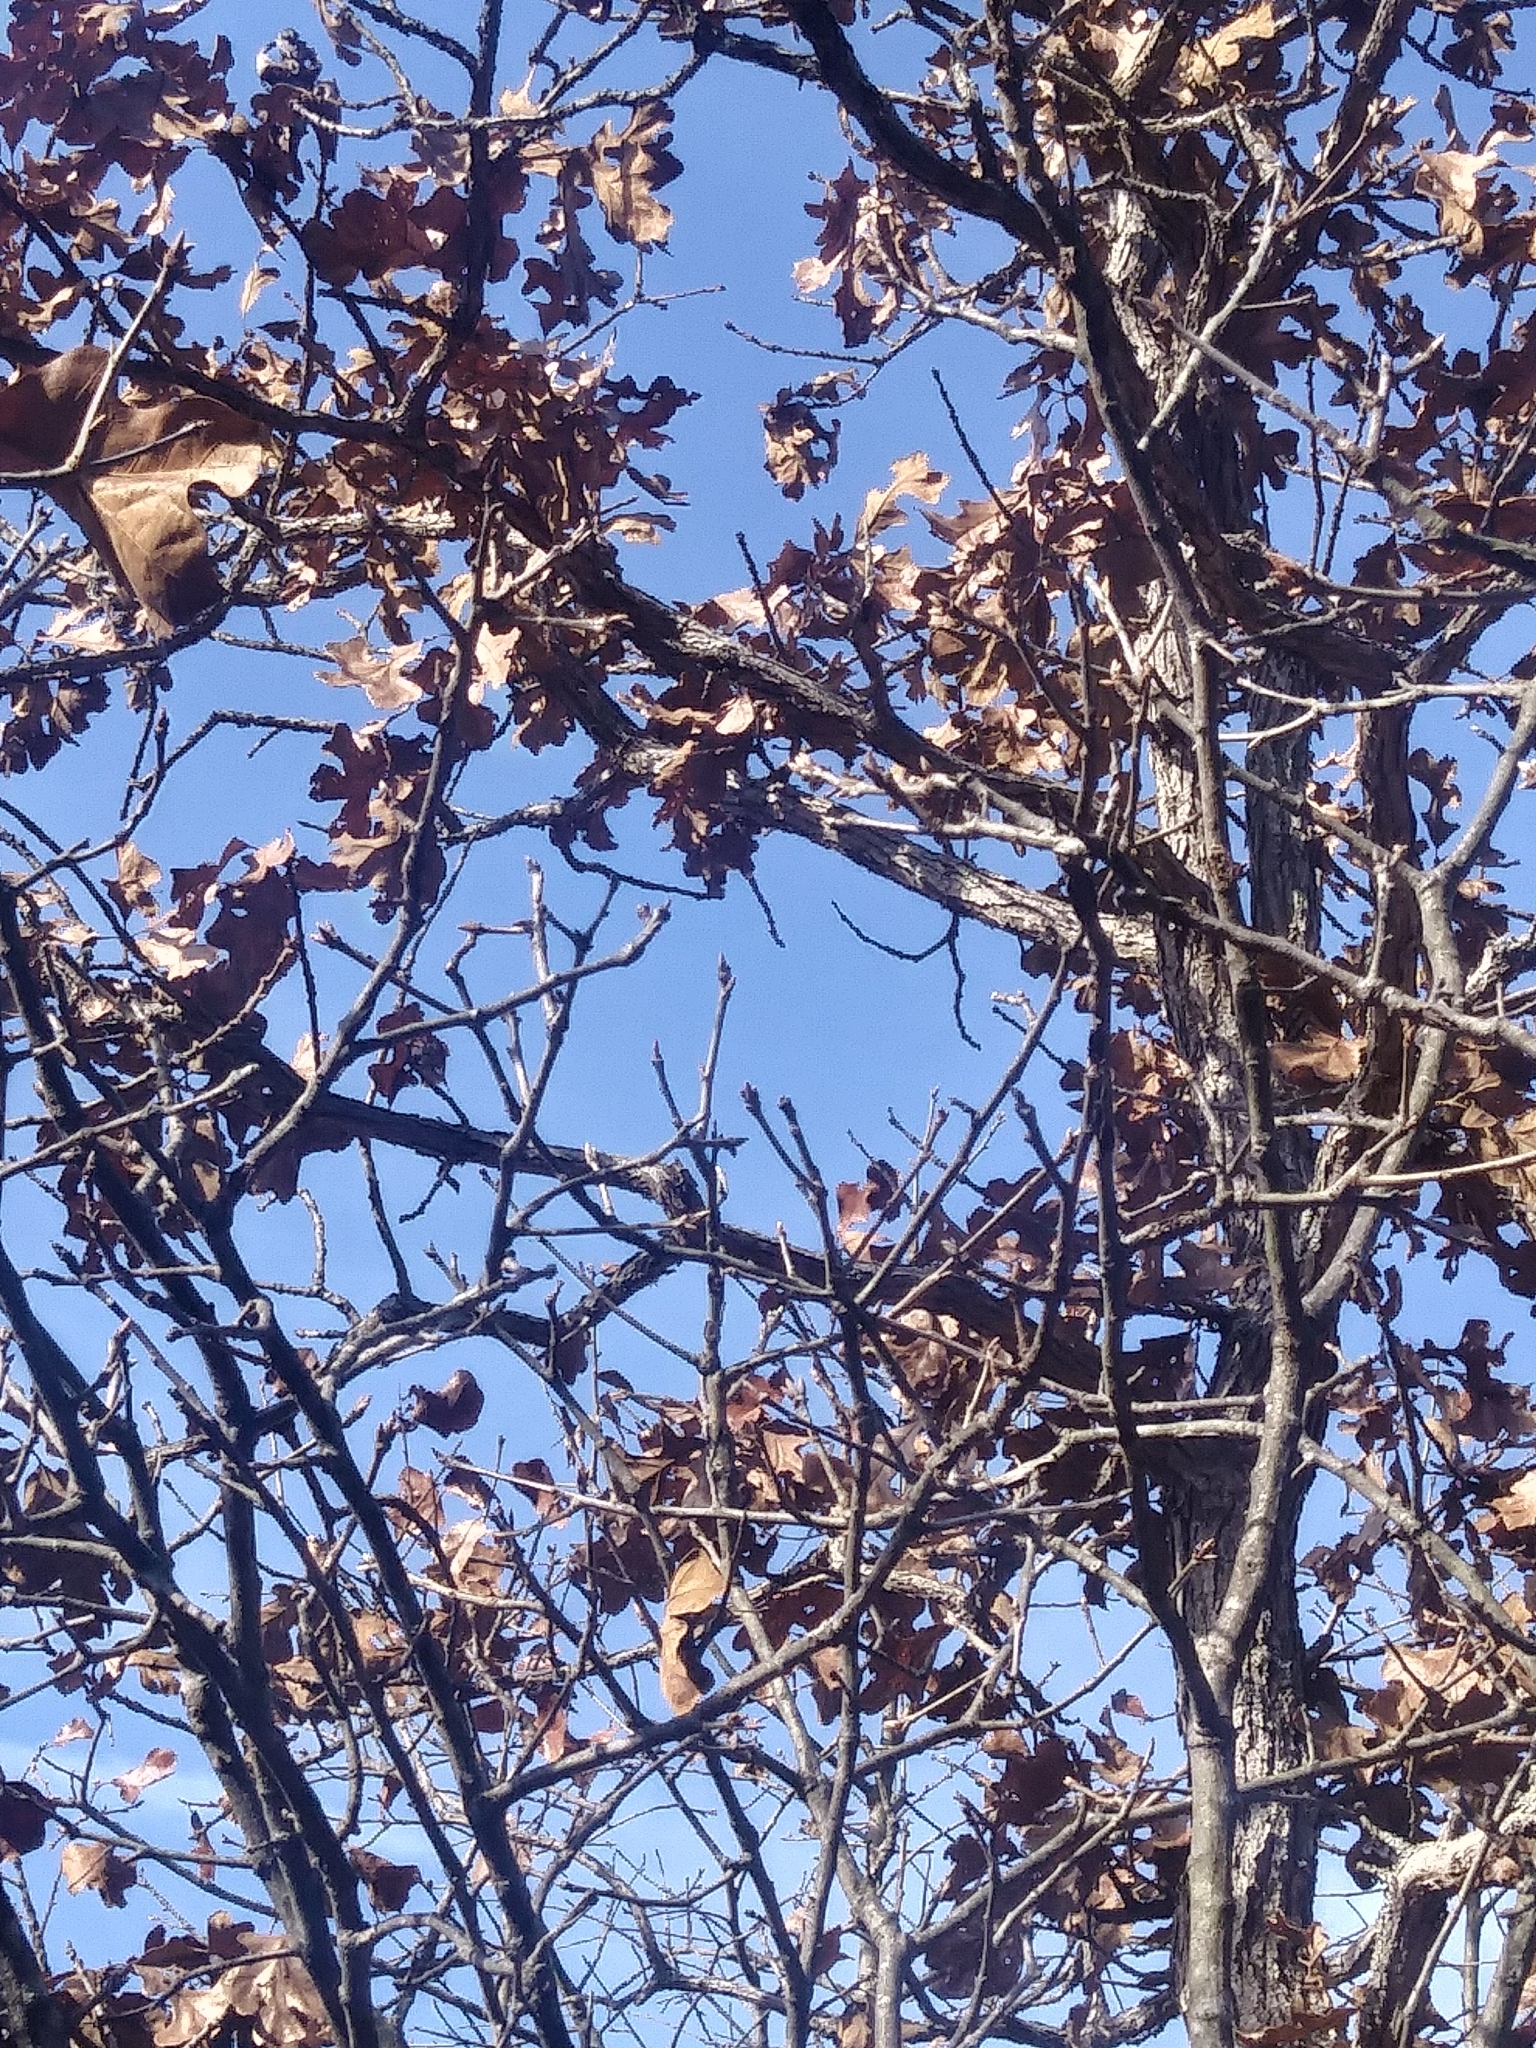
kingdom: Plantae
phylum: Tracheophyta
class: Magnoliopsida
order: Fagales
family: Fagaceae
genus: Quercus
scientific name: Quercus stellata
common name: Post oak
